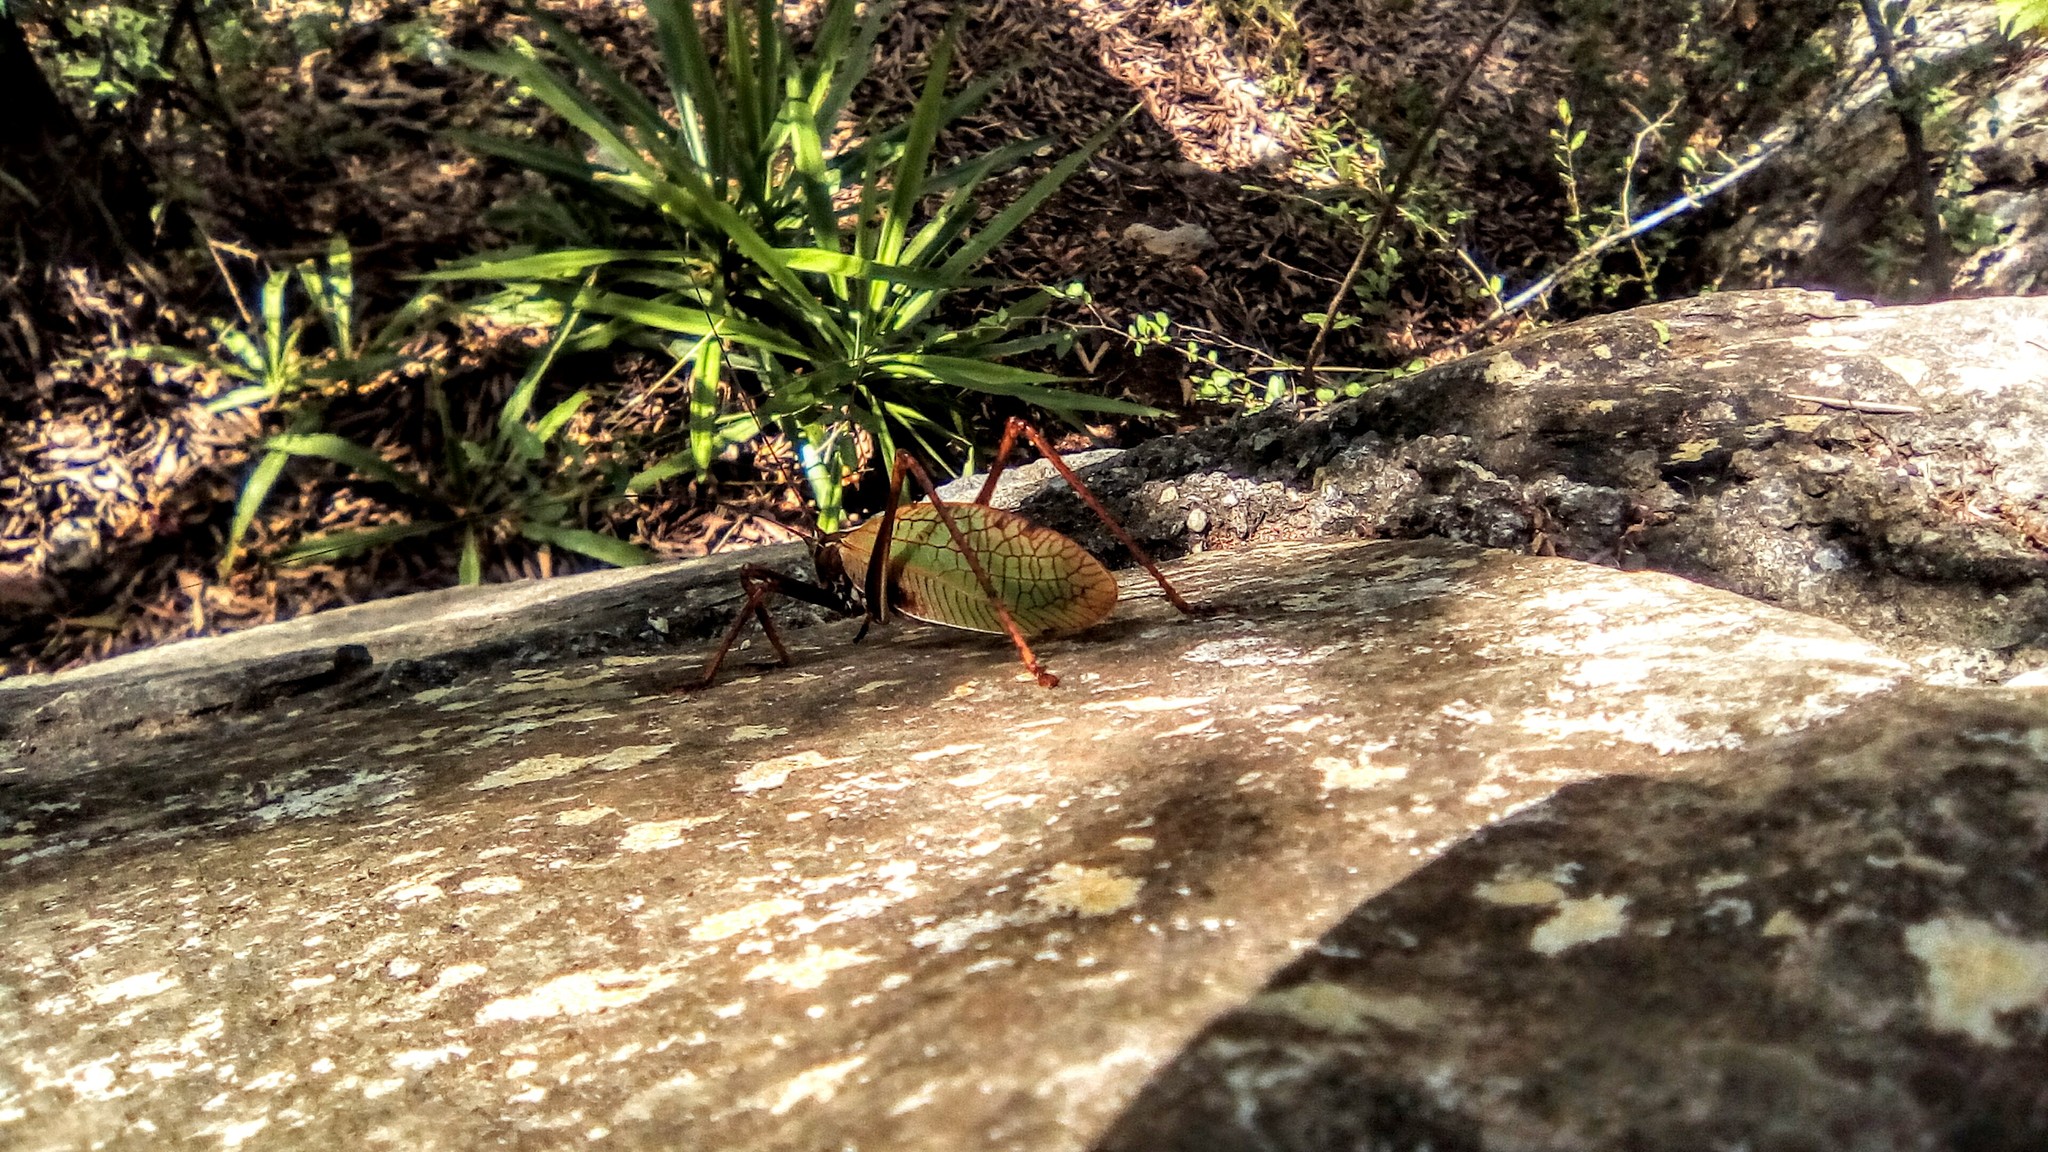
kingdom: Animalia
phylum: Arthropoda
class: Insecta
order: Orthoptera
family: Tettigoniidae
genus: Pterophylla
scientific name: Pterophylla beltrani
